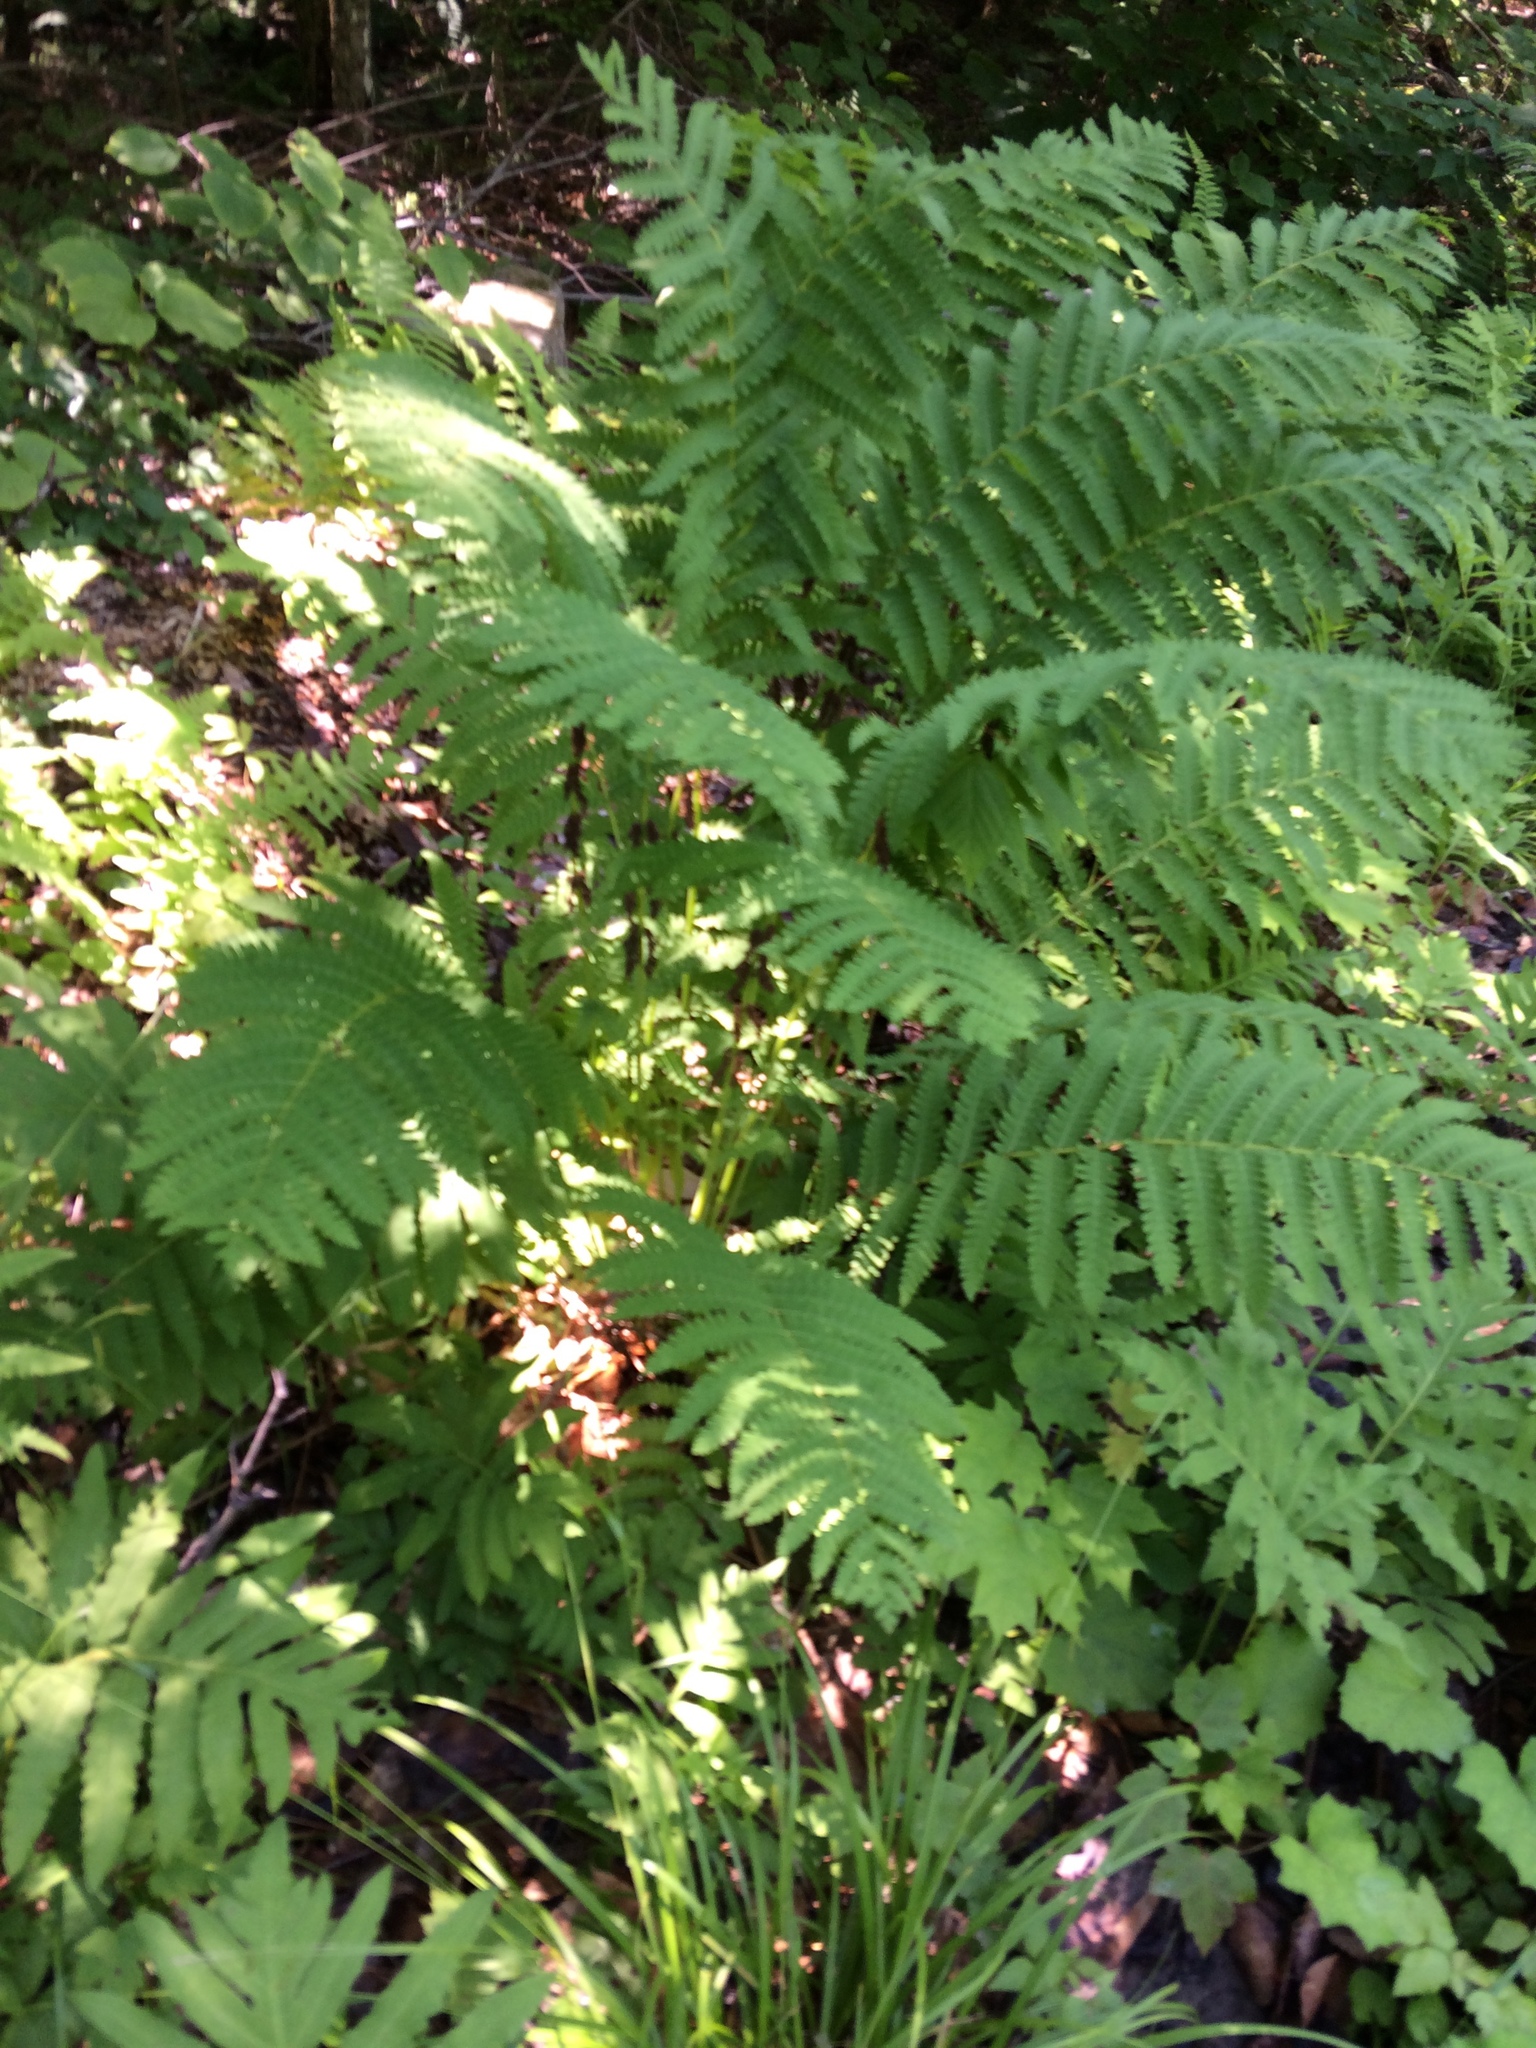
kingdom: Plantae
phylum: Tracheophyta
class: Polypodiopsida
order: Osmundales
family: Osmundaceae
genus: Claytosmunda
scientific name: Claytosmunda claytoniana
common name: Clayton's fern
